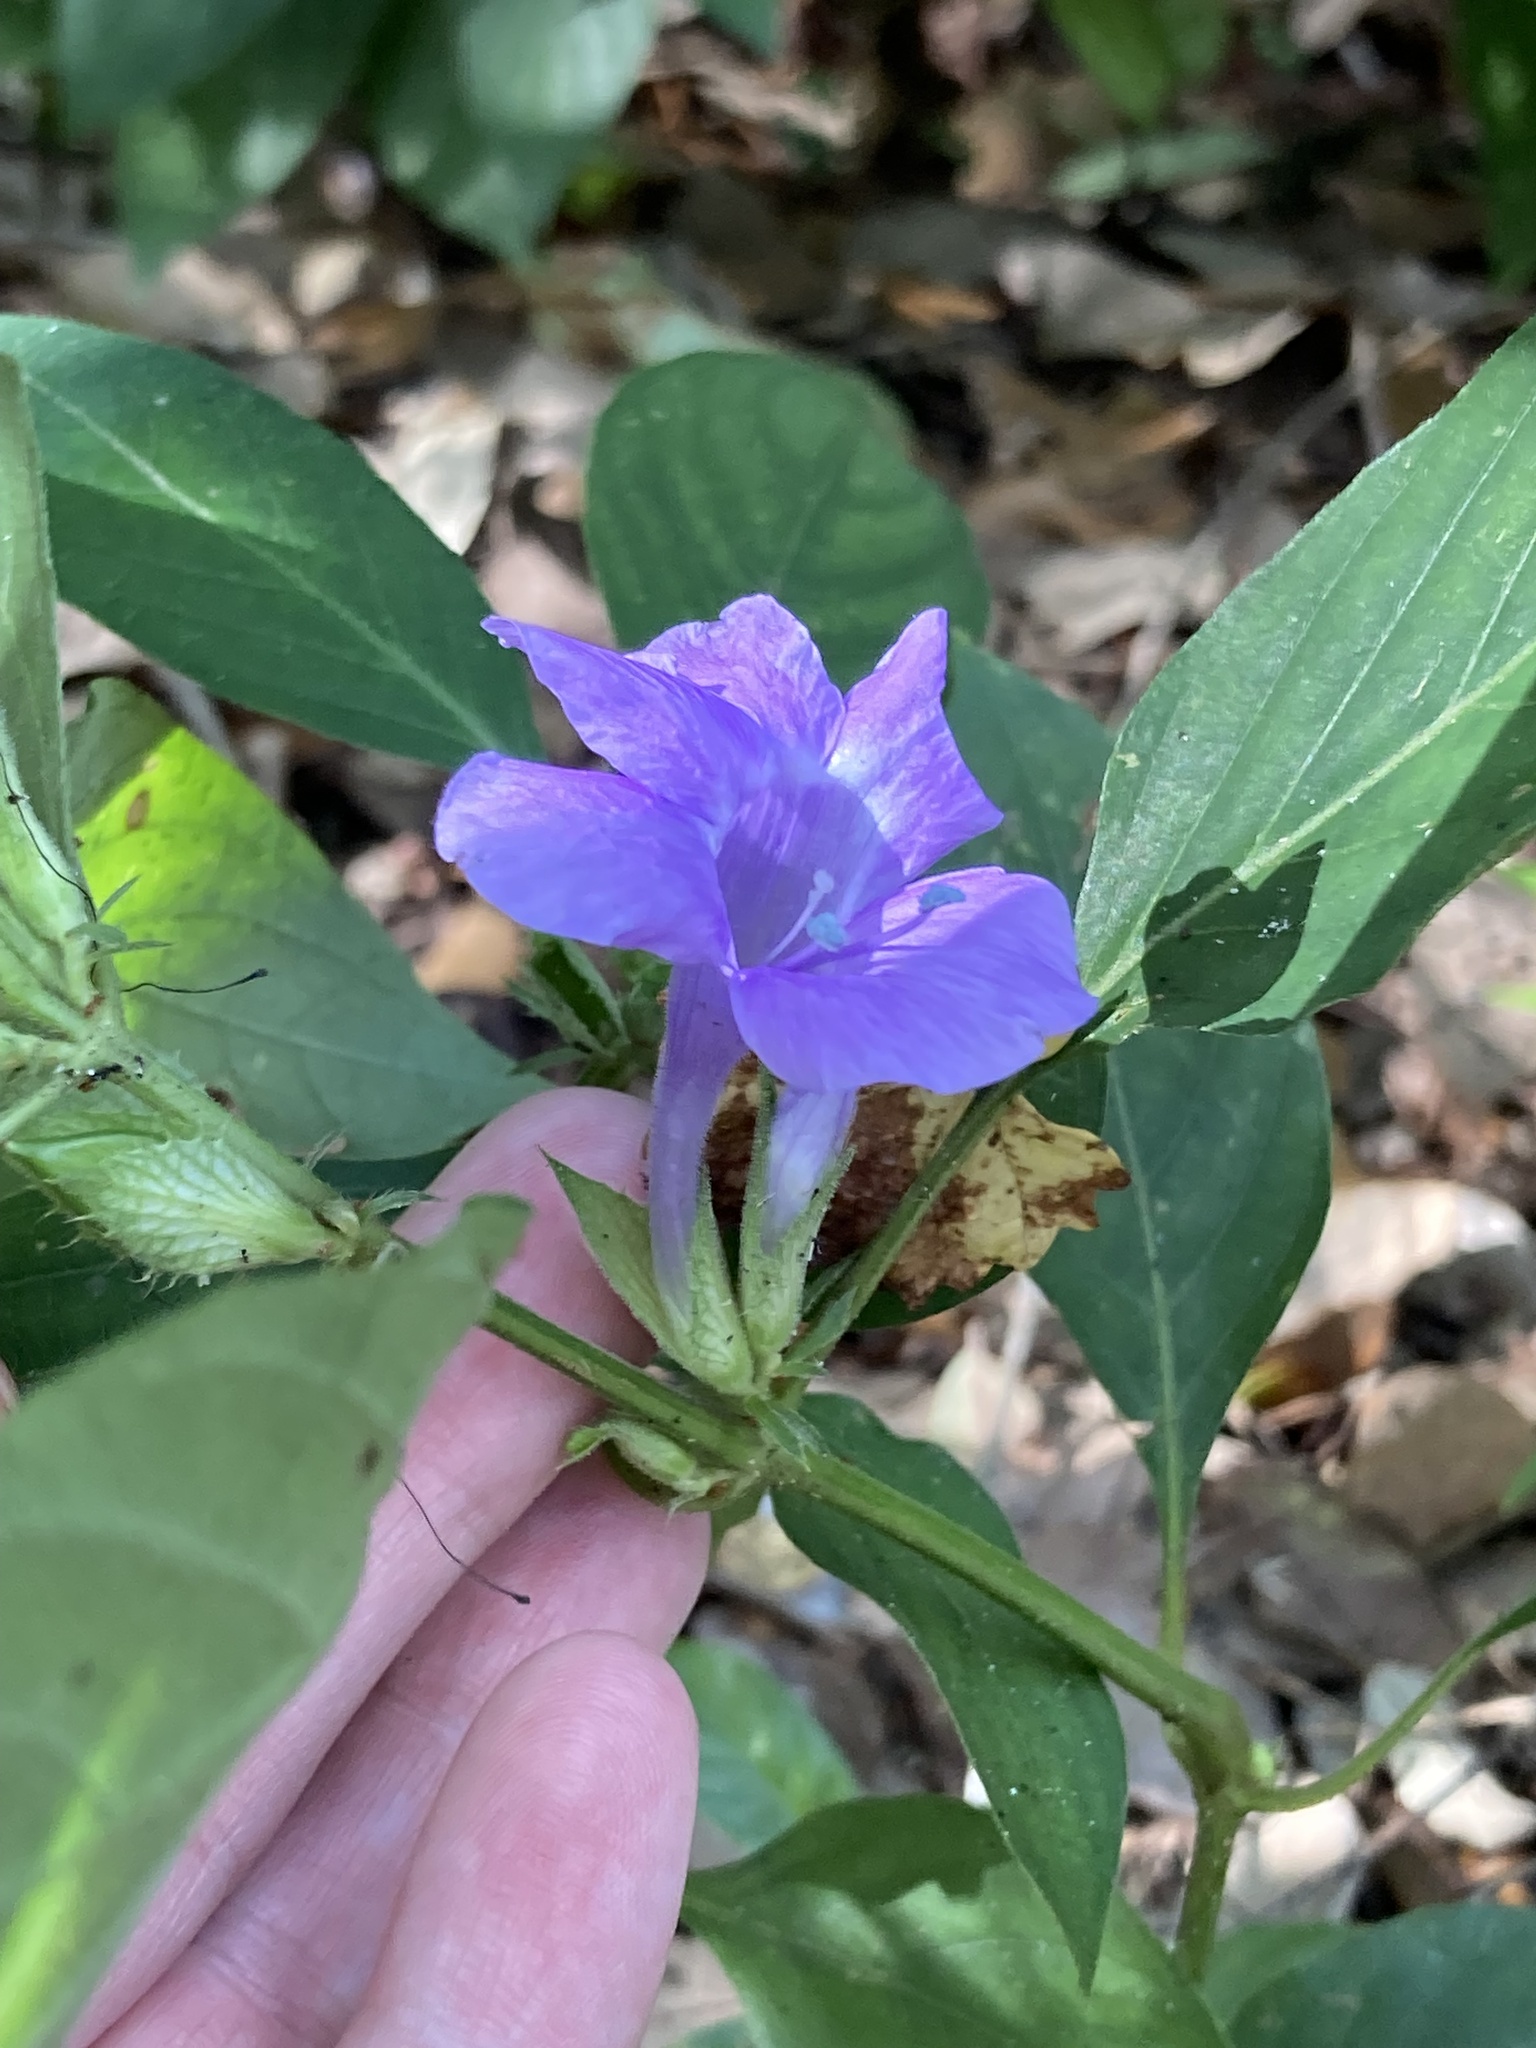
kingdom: Plantae
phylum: Tracheophyta
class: Magnoliopsida
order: Lamiales
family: Acanthaceae
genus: Barleria
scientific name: Barleria cristata
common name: Crested philippine violet
